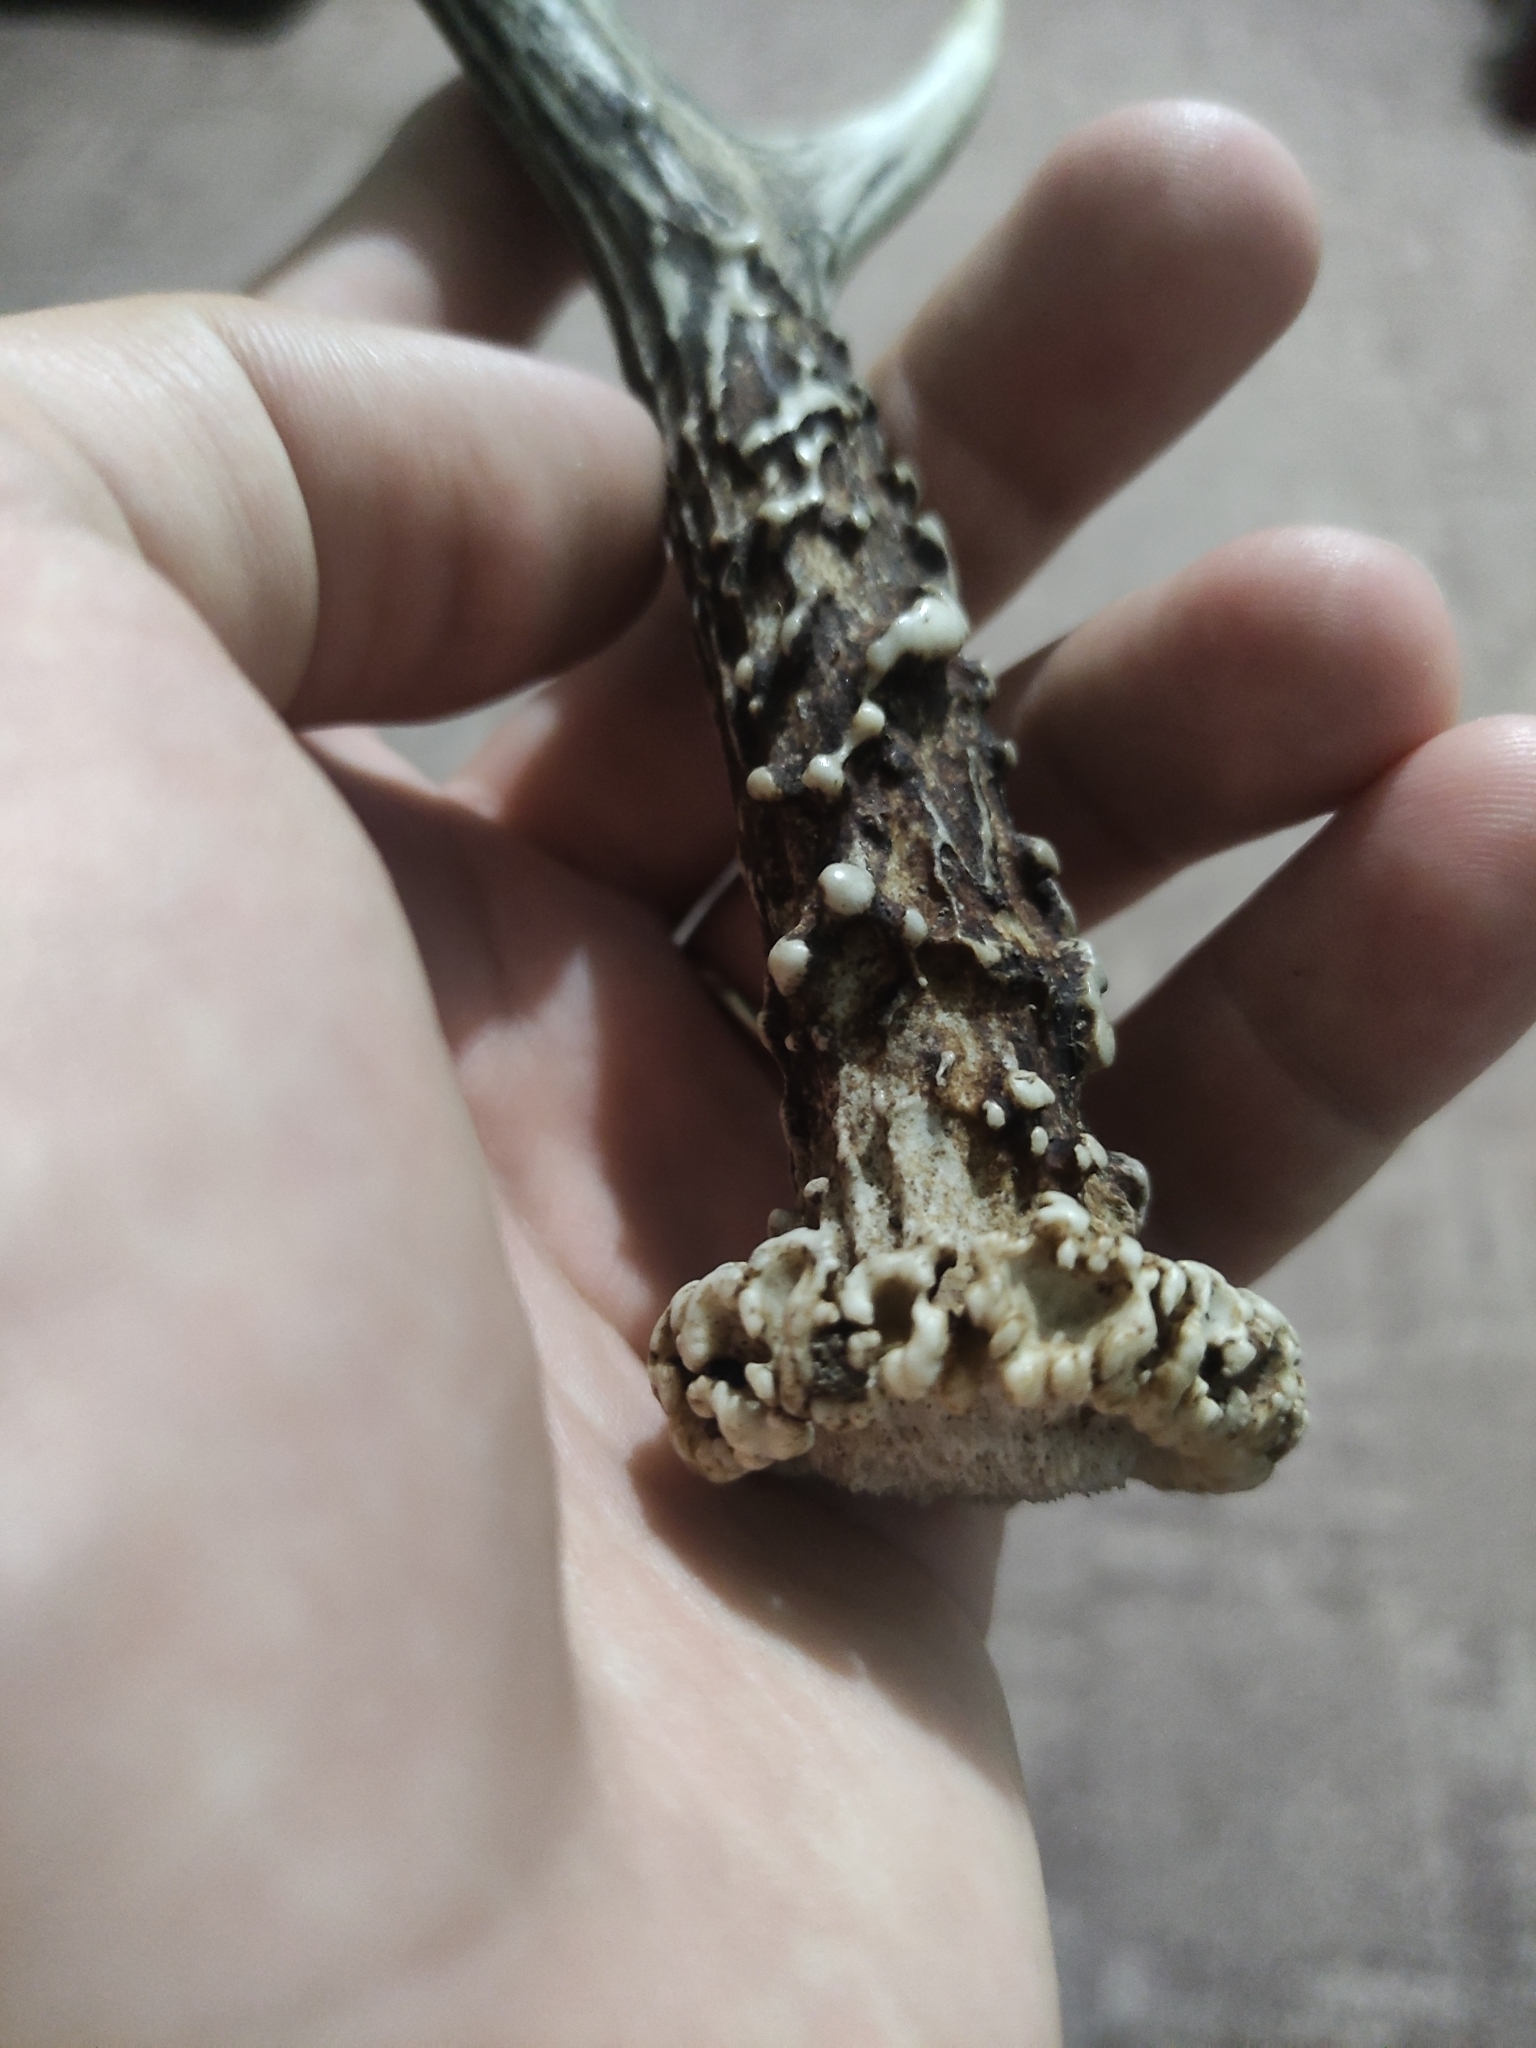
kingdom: Animalia
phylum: Chordata
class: Mammalia
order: Artiodactyla
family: Cervidae
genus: Capreolus
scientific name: Capreolus capreolus
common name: Western roe deer
